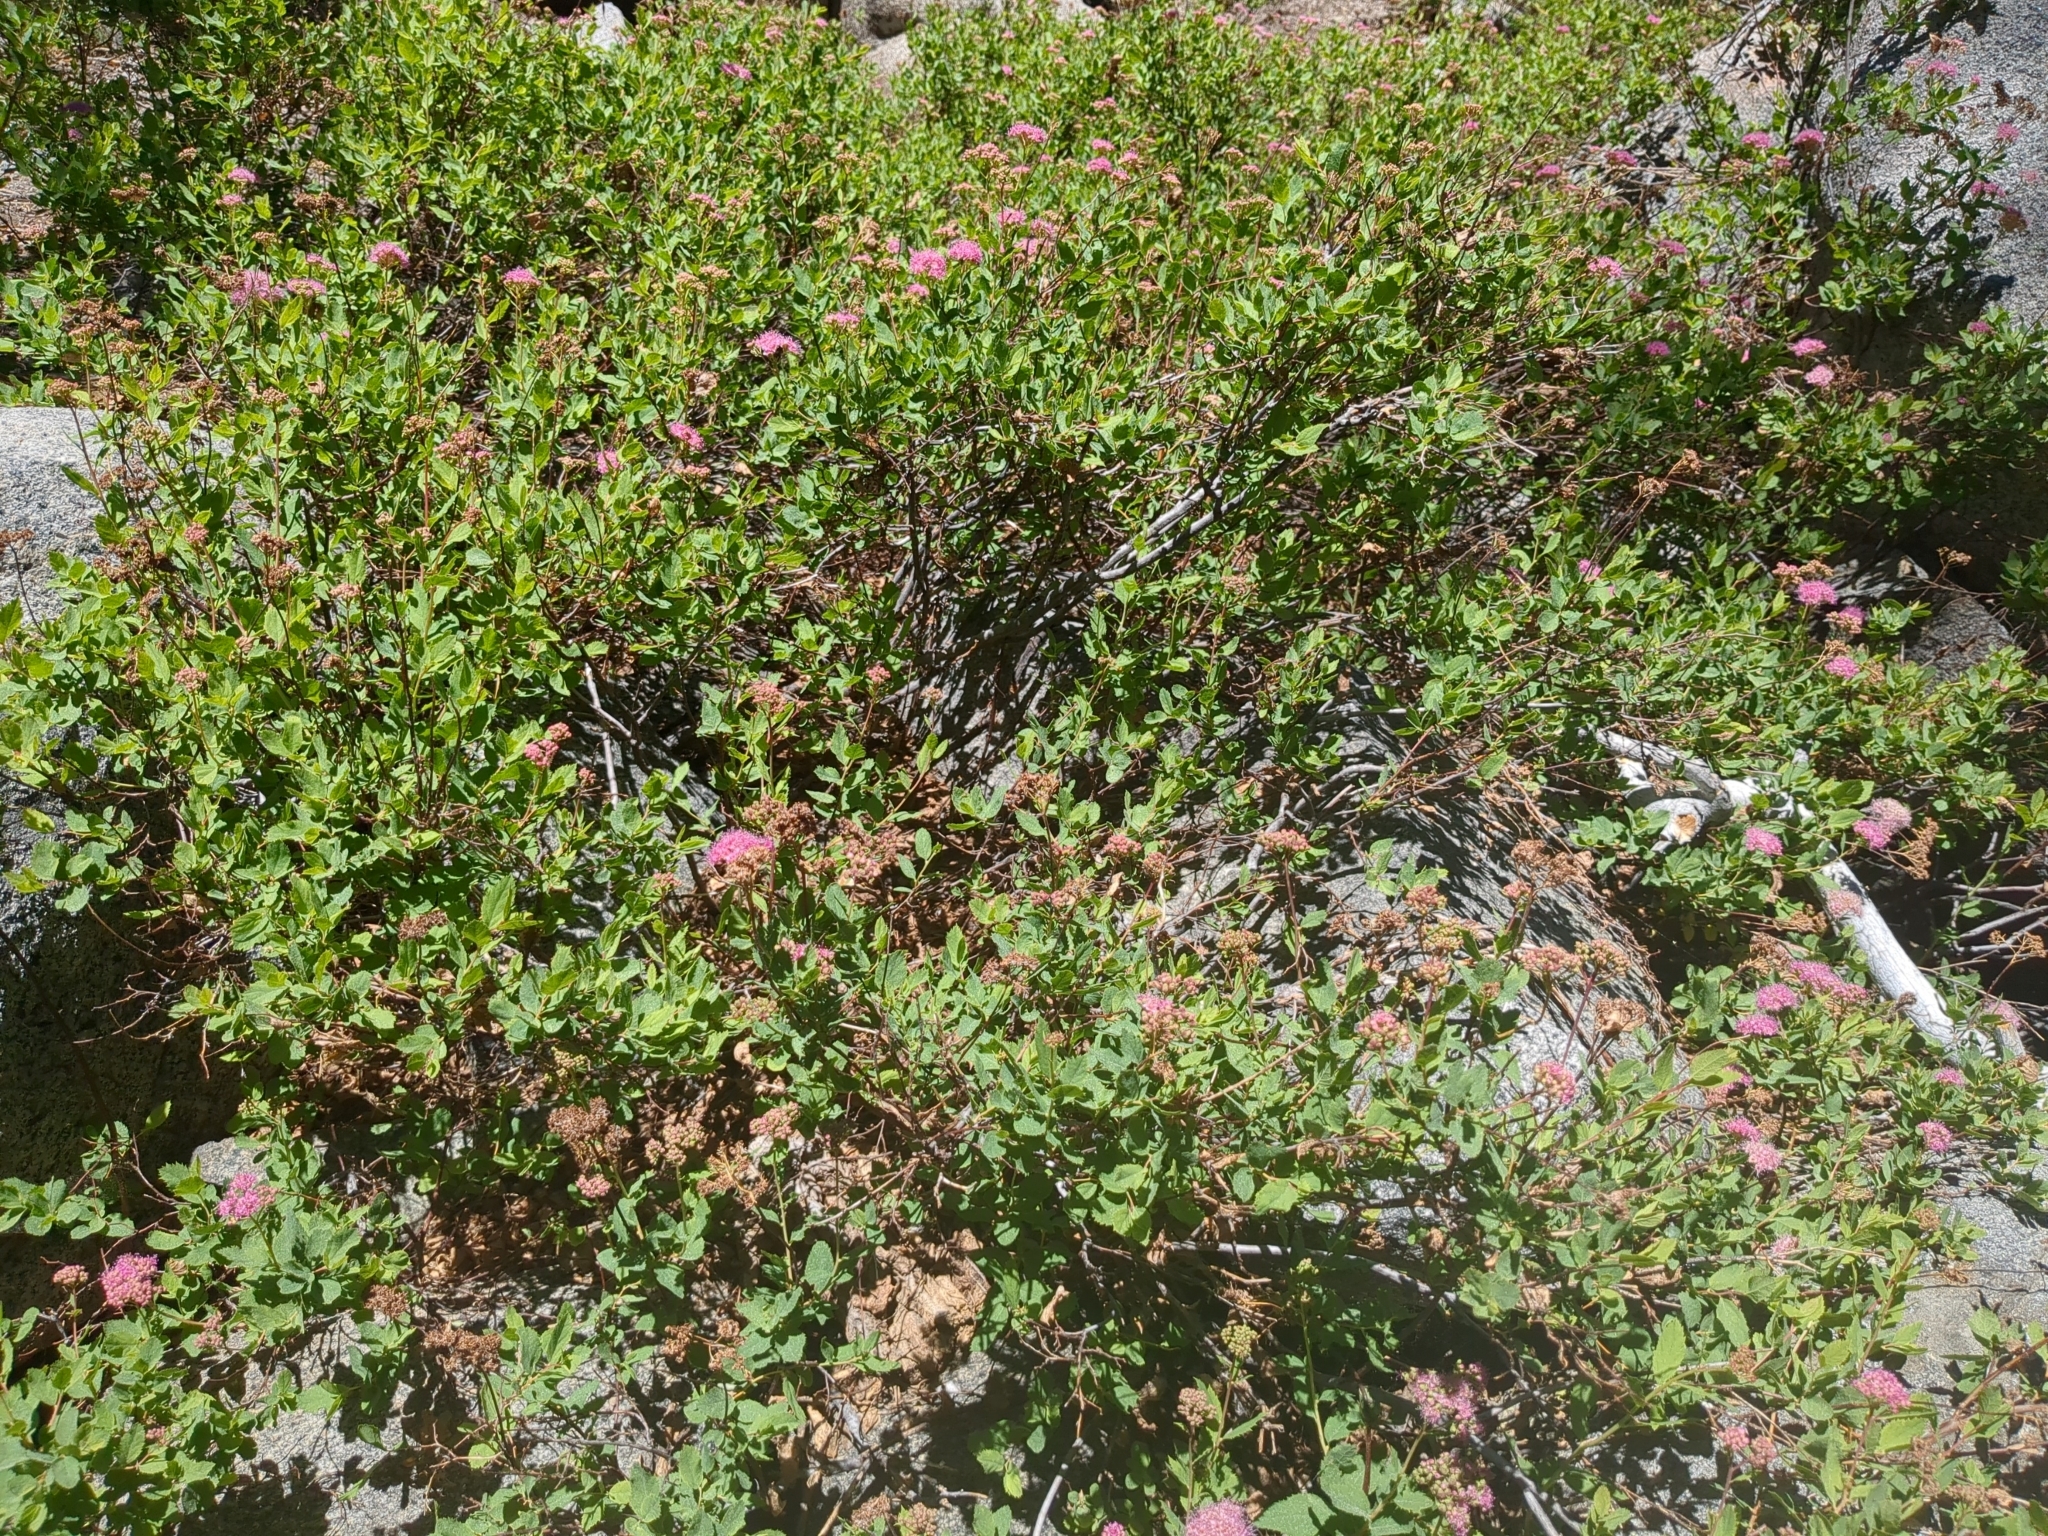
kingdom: Plantae
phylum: Tracheophyta
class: Magnoliopsida
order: Rosales
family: Rosaceae
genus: Spiraea
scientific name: Spiraea splendens
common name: Subalpine meadowsweet
